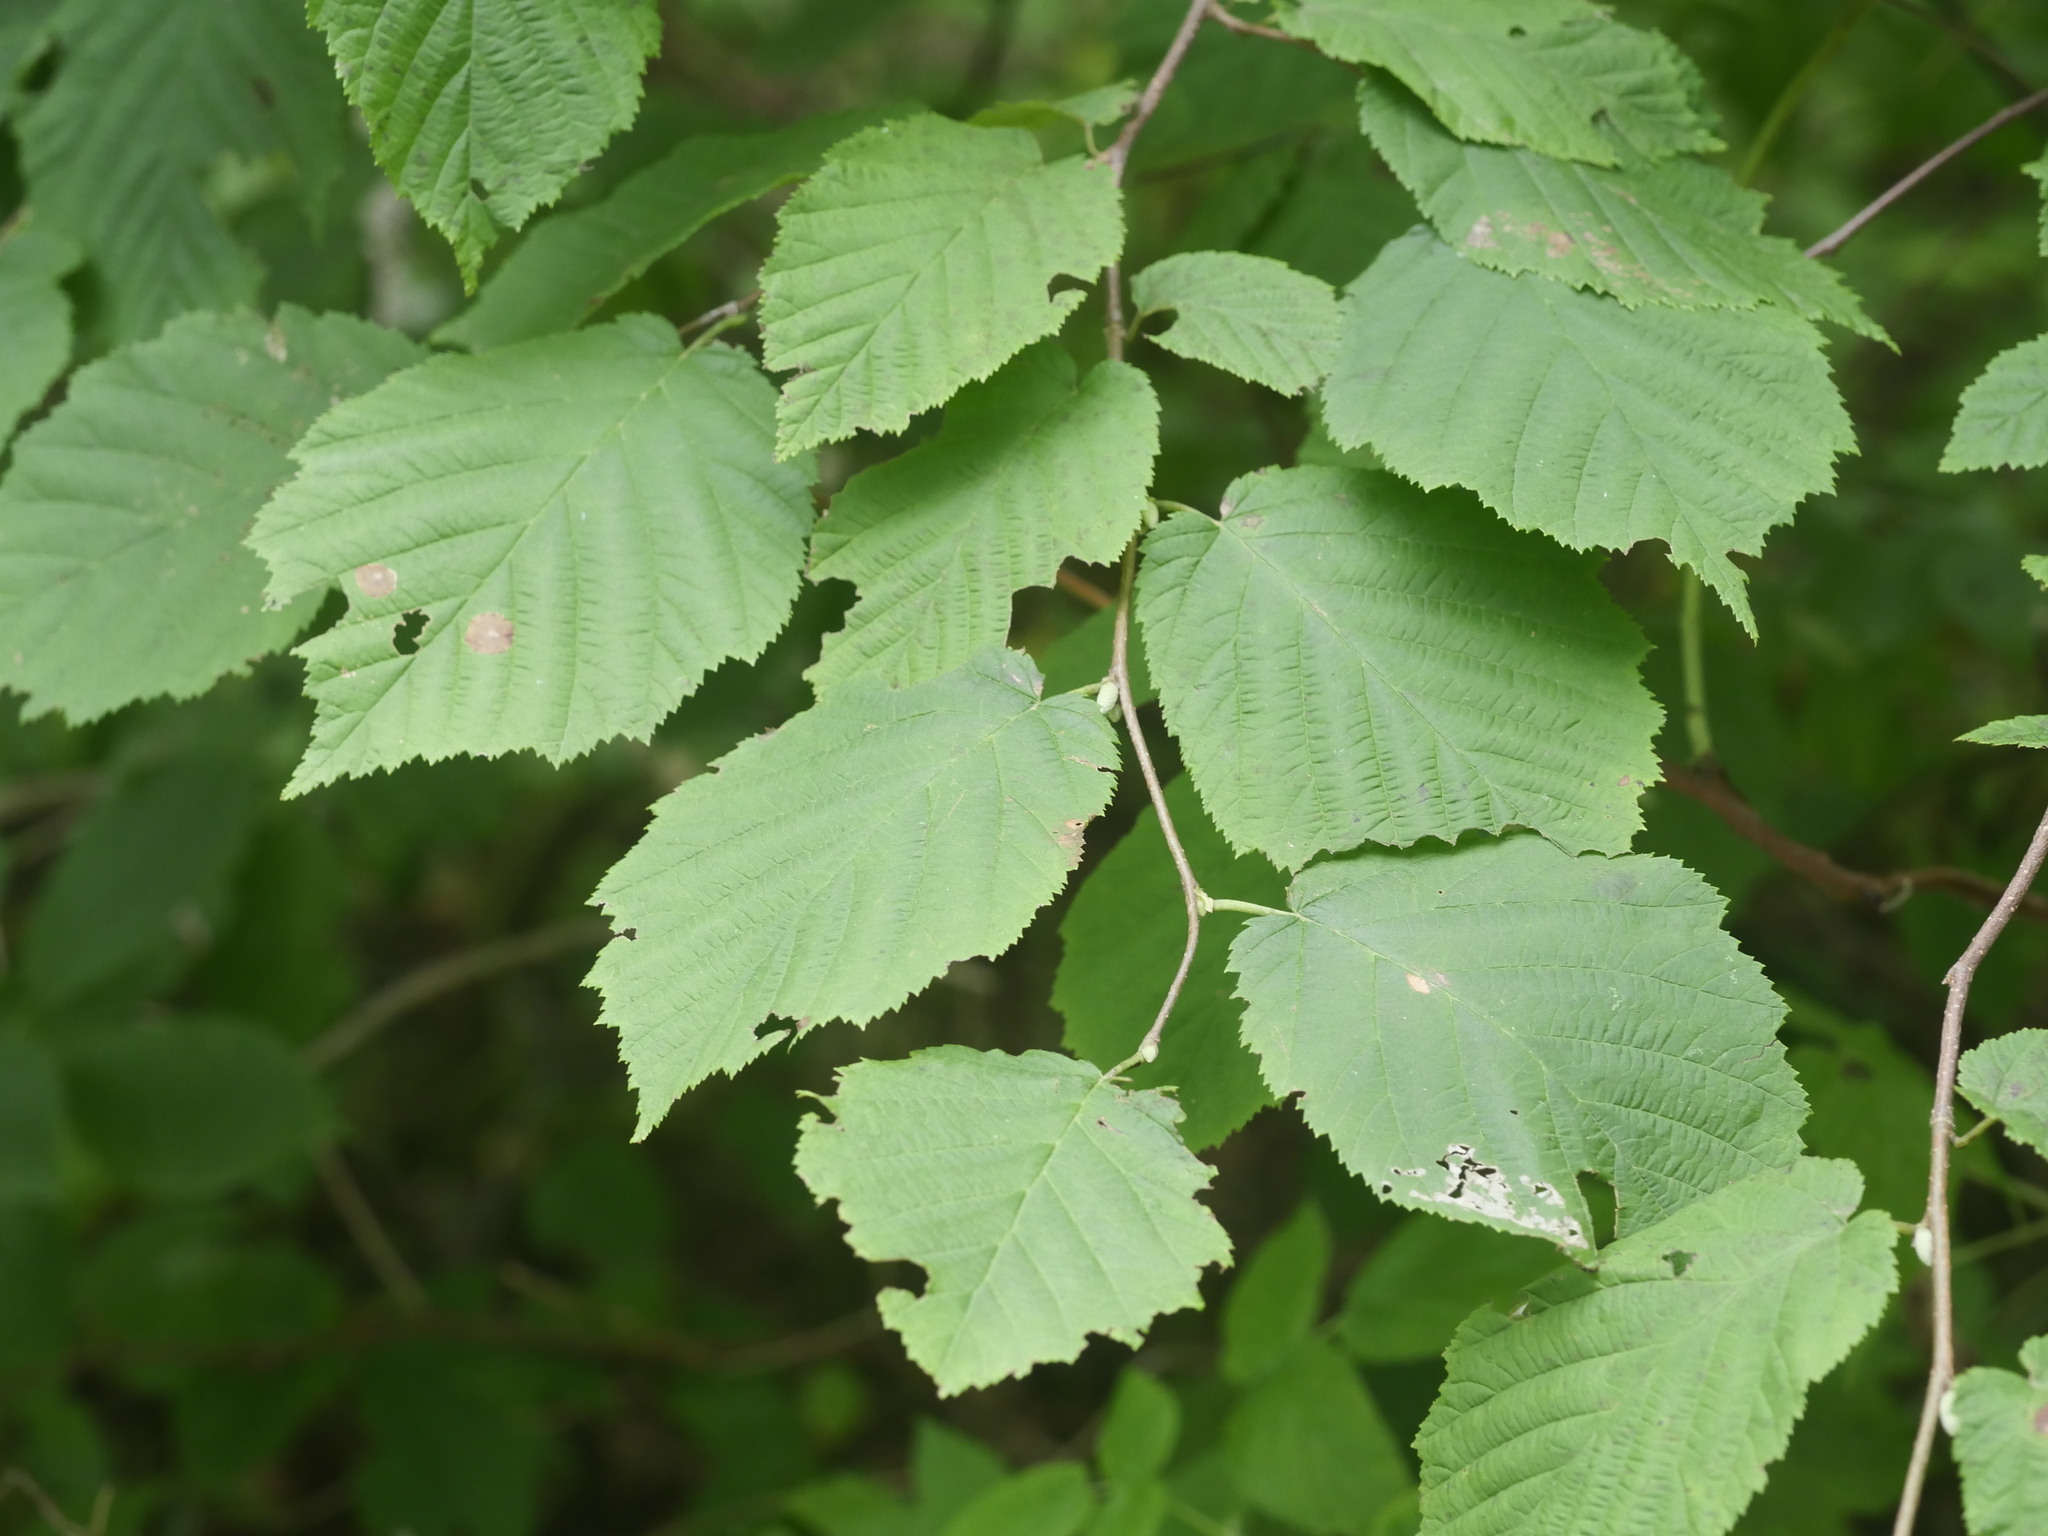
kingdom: Plantae
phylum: Tracheophyta
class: Magnoliopsida
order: Fagales
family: Betulaceae
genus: Corylus
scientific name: Corylus cornuta
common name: Beaked hazel
